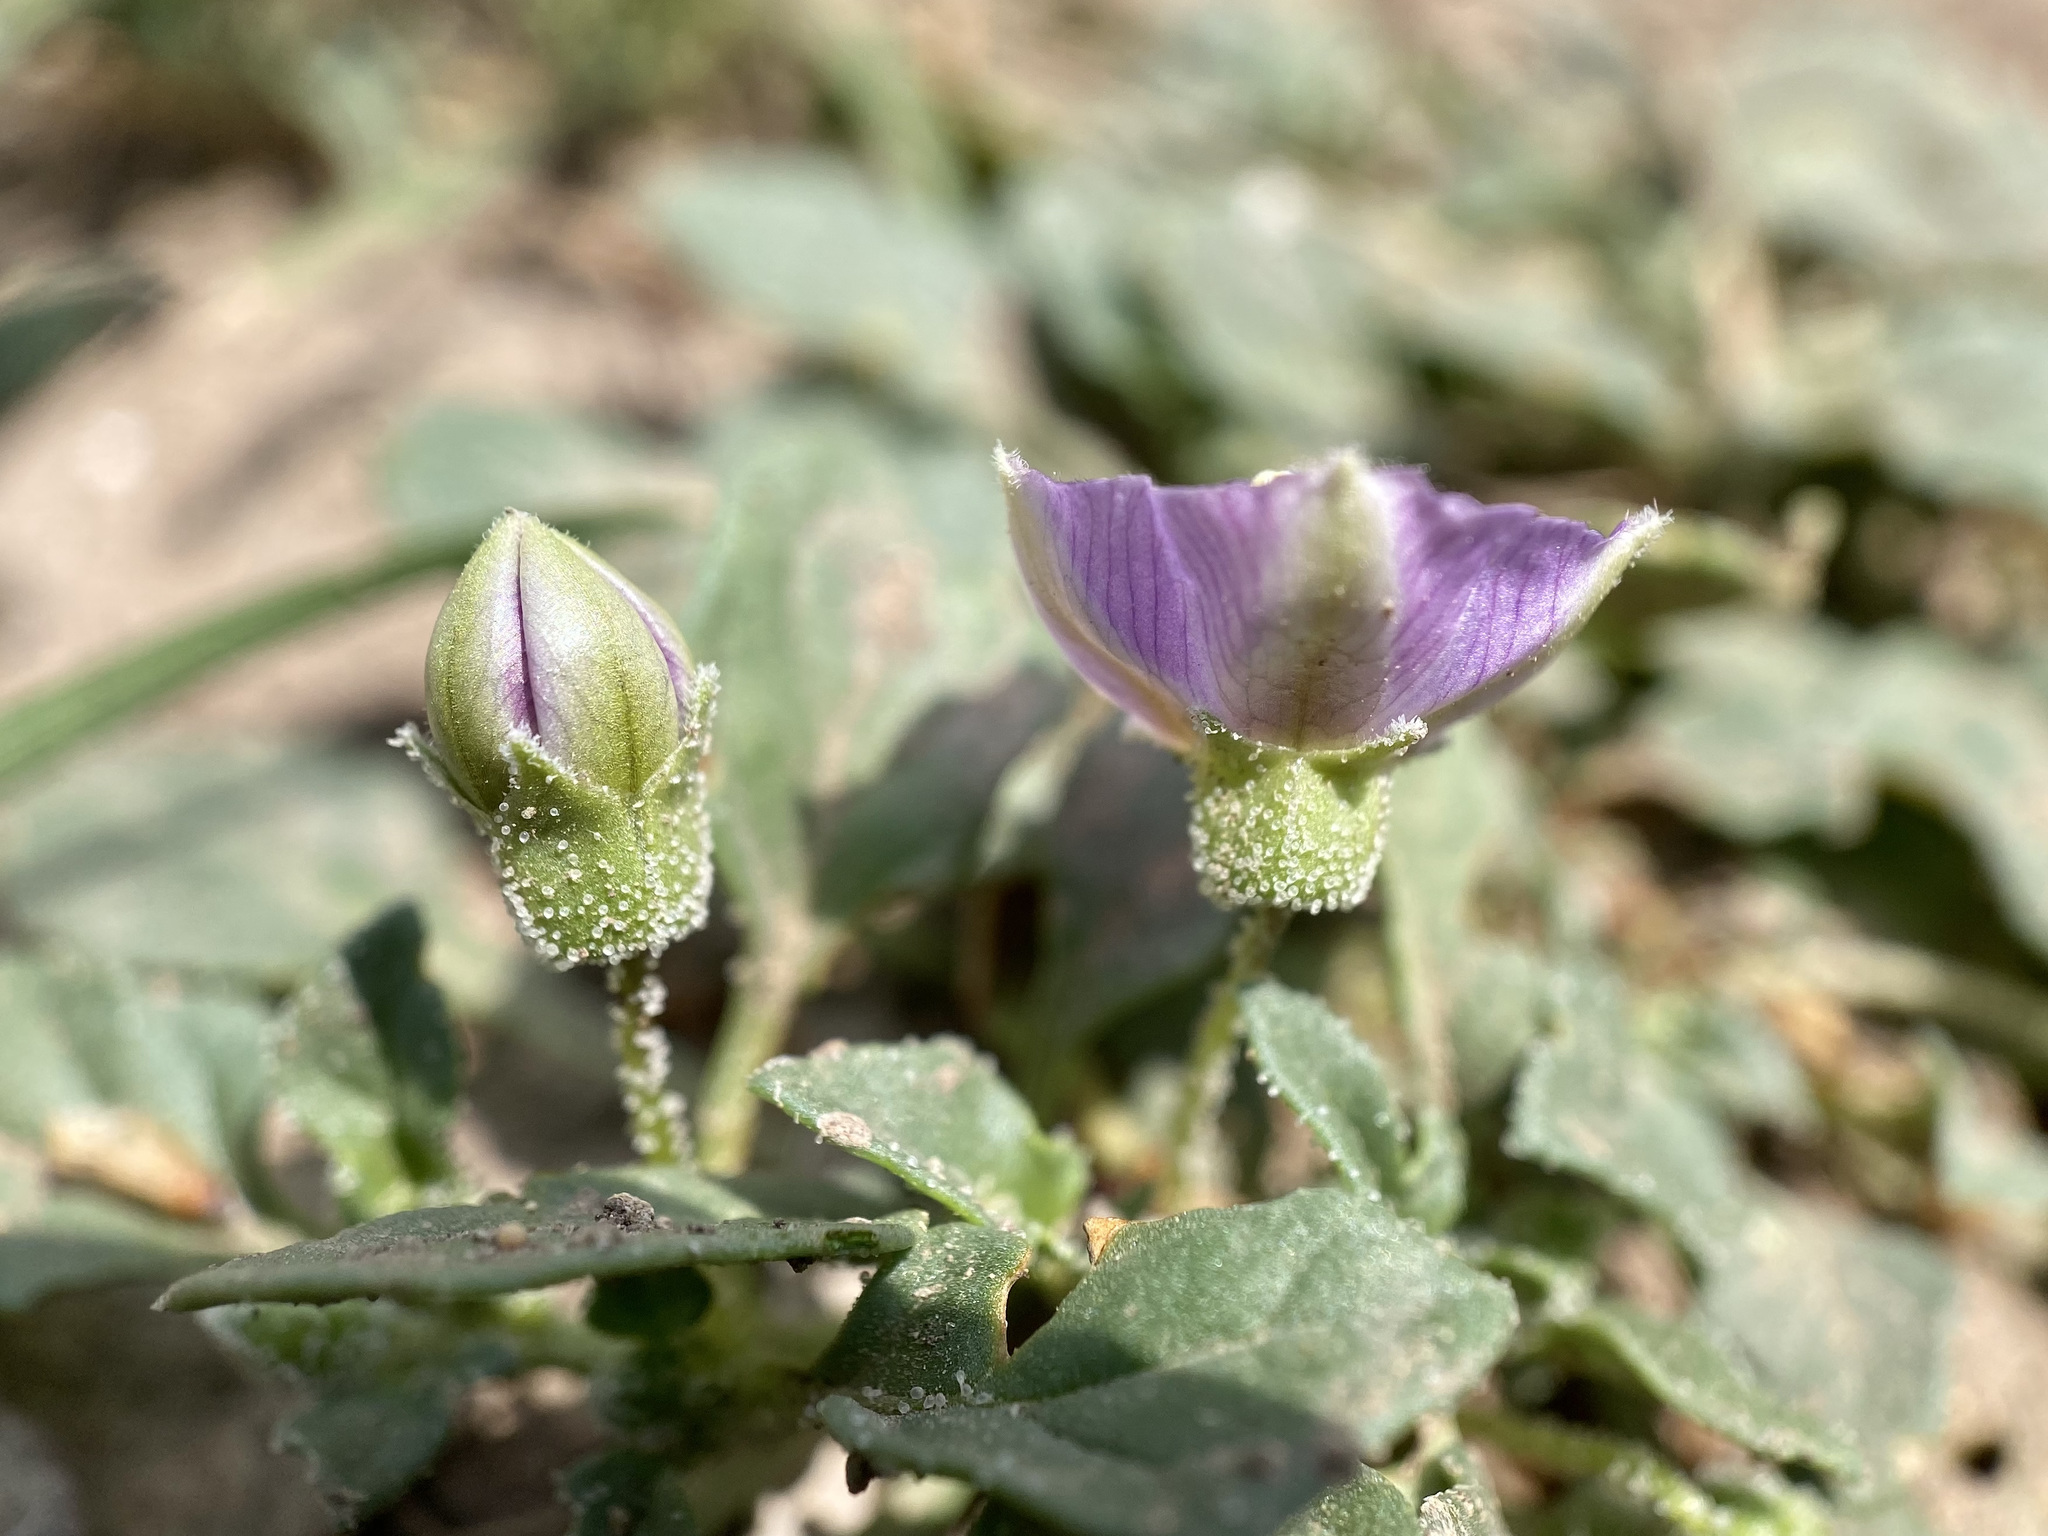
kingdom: Plantae
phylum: Tracheophyta
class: Magnoliopsida
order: Solanales
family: Solanaceae
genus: Quincula
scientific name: Quincula lobata
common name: Purple-ground-cherry
